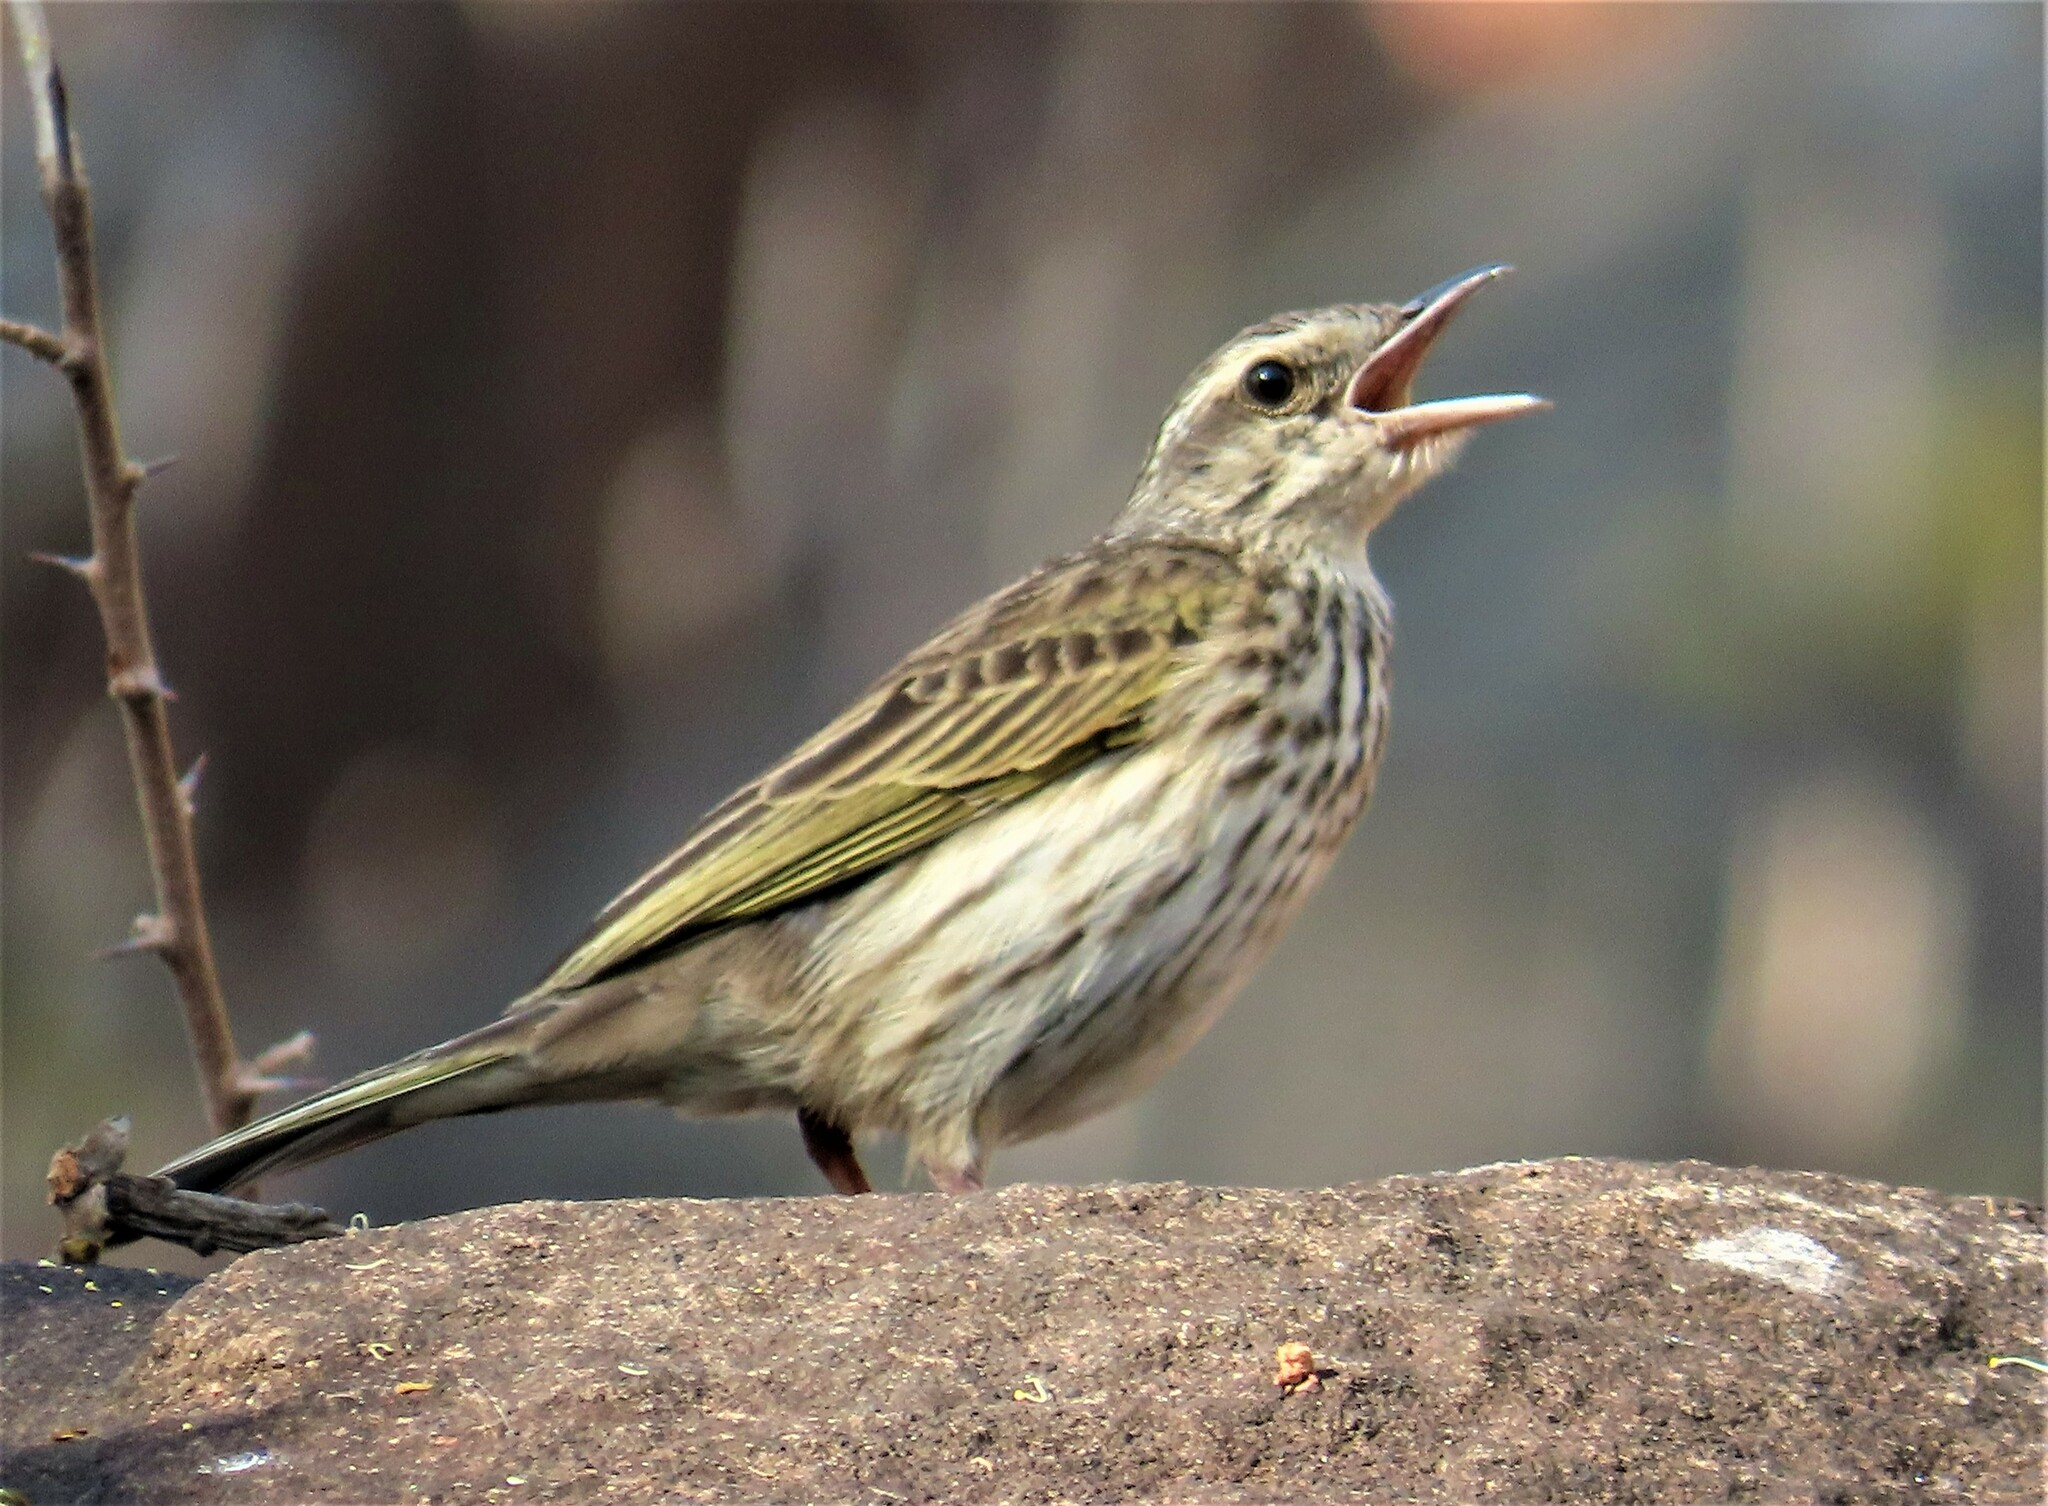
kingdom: Animalia
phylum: Chordata
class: Aves
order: Passeriformes
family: Motacillidae
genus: Anthus
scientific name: Anthus lineiventris
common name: Striped pipit
